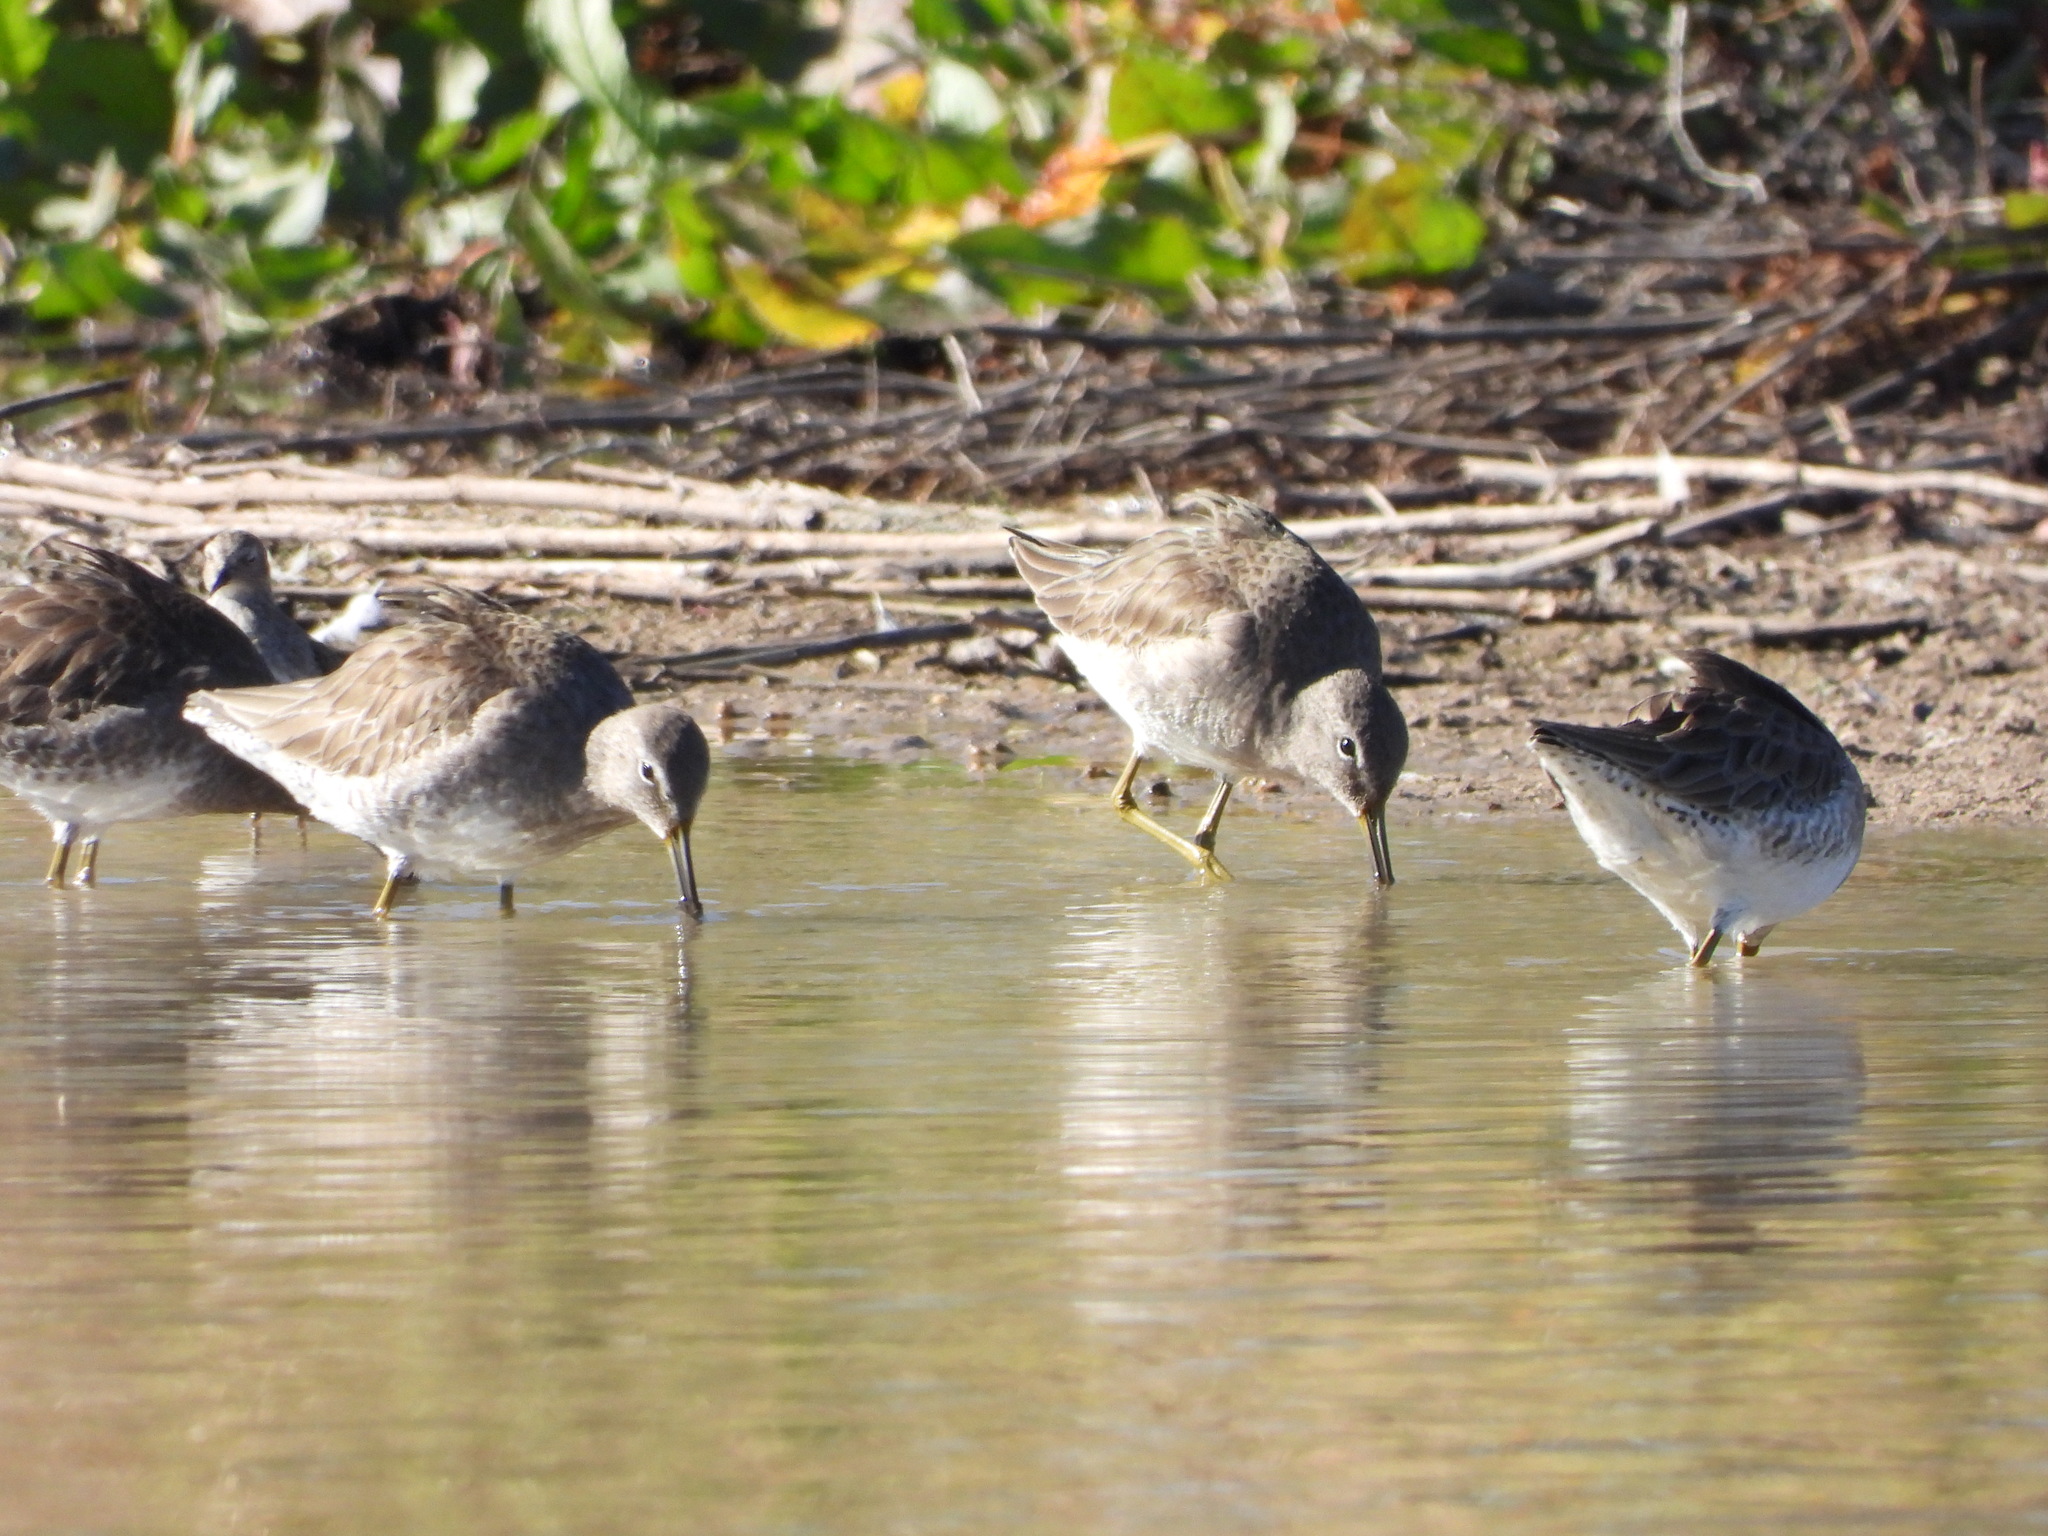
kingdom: Animalia
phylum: Chordata
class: Aves
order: Charadriiformes
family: Scolopacidae
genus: Limnodromus
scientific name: Limnodromus scolopaceus
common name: Long-billed dowitcher
